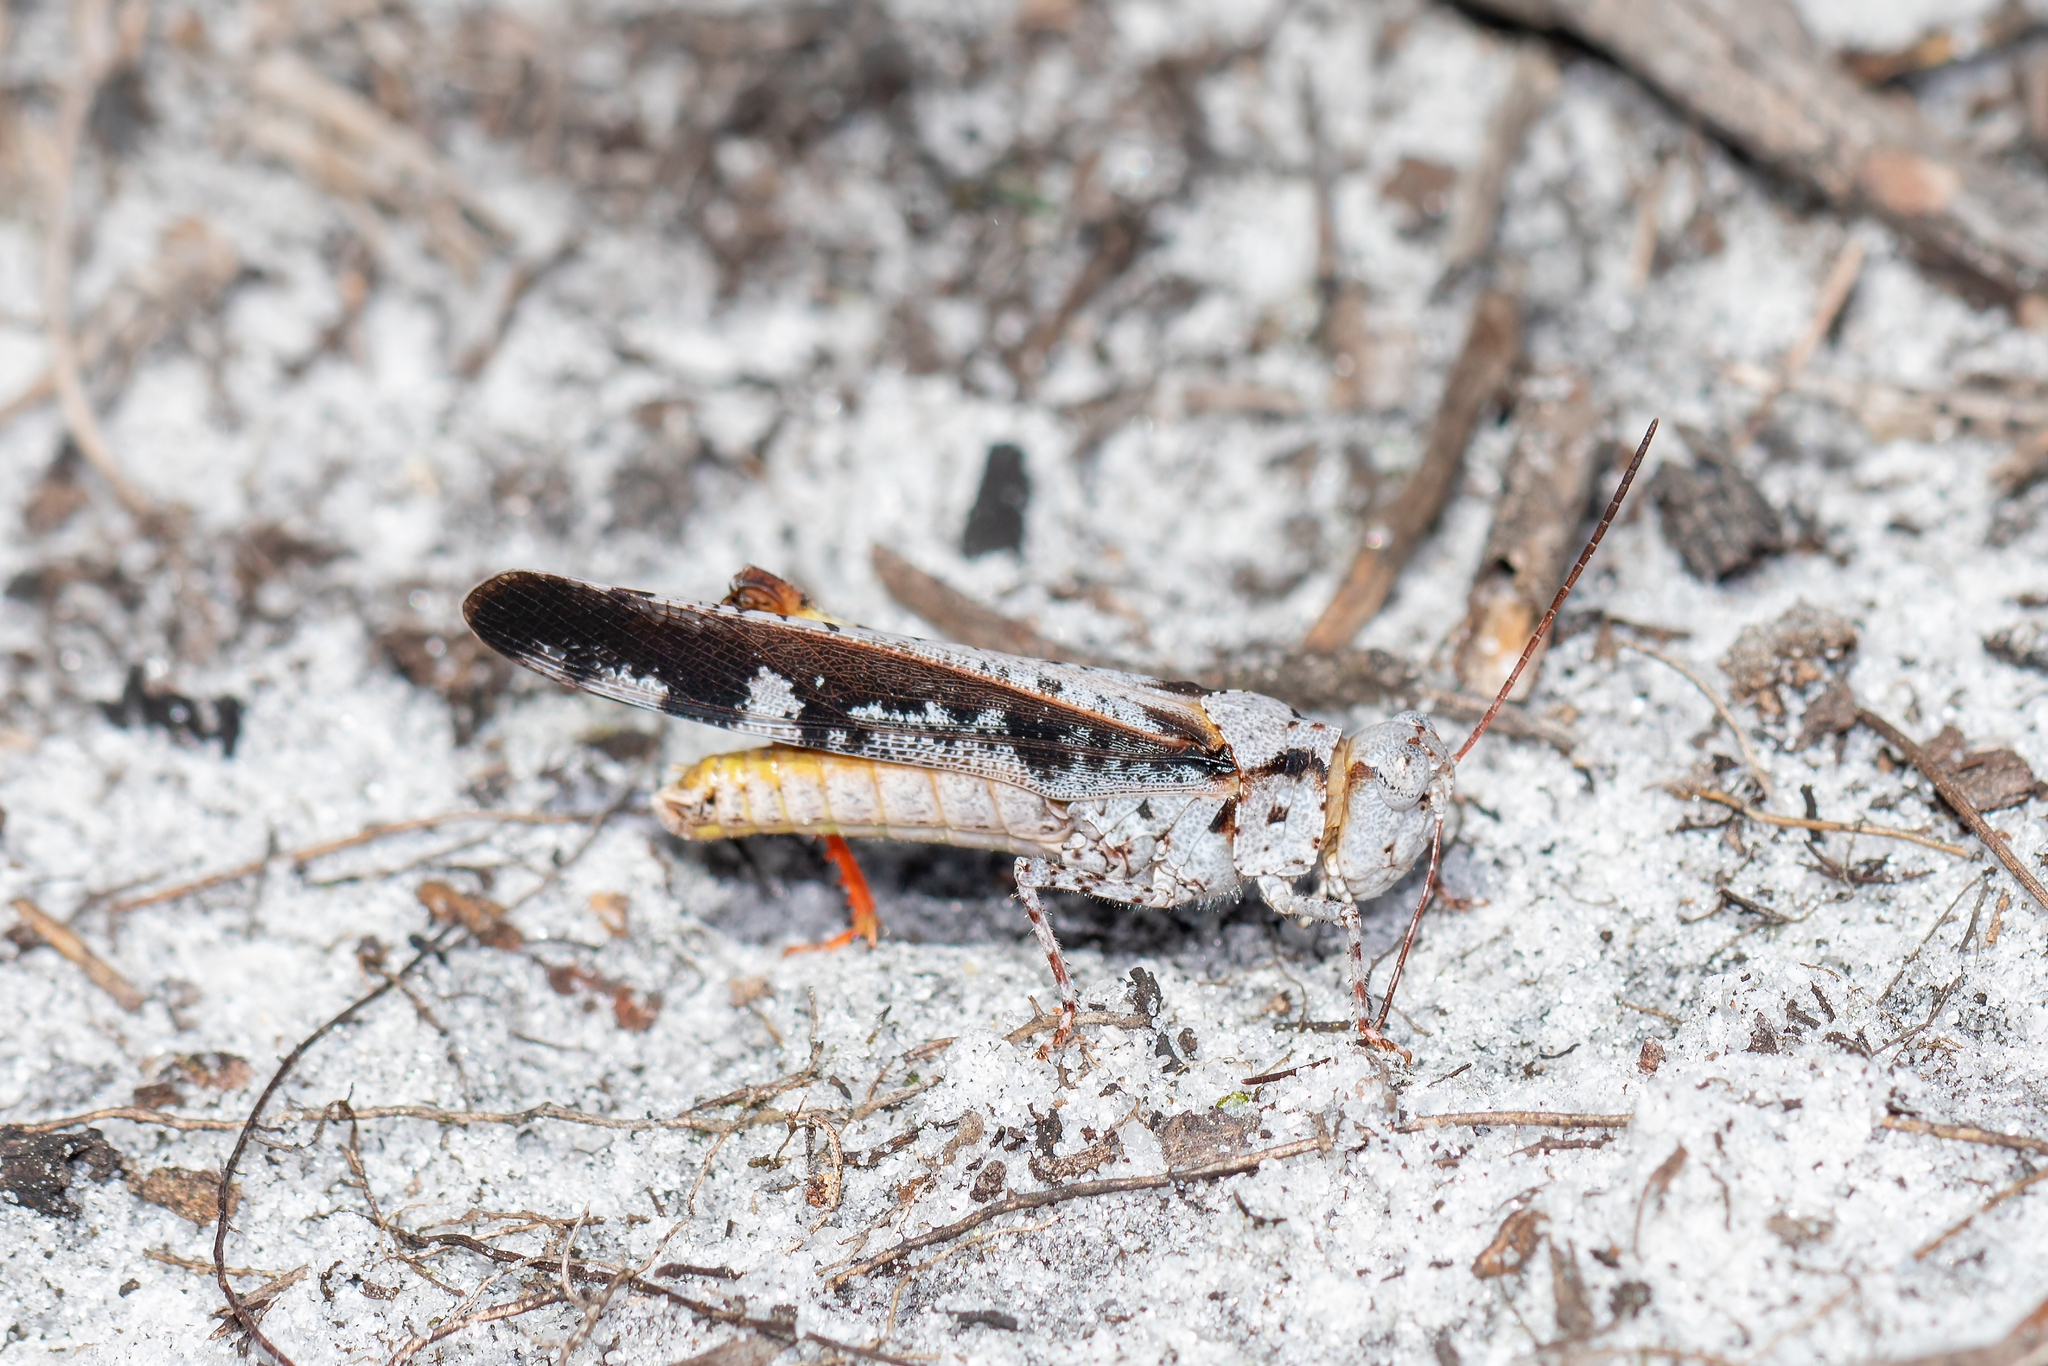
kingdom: Animalia
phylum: Arthropoda
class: Insecta
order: Orthoptera
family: Acrididae
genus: Spharagemon
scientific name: Spharagemon marmoratum
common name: Marbled grasshopper
